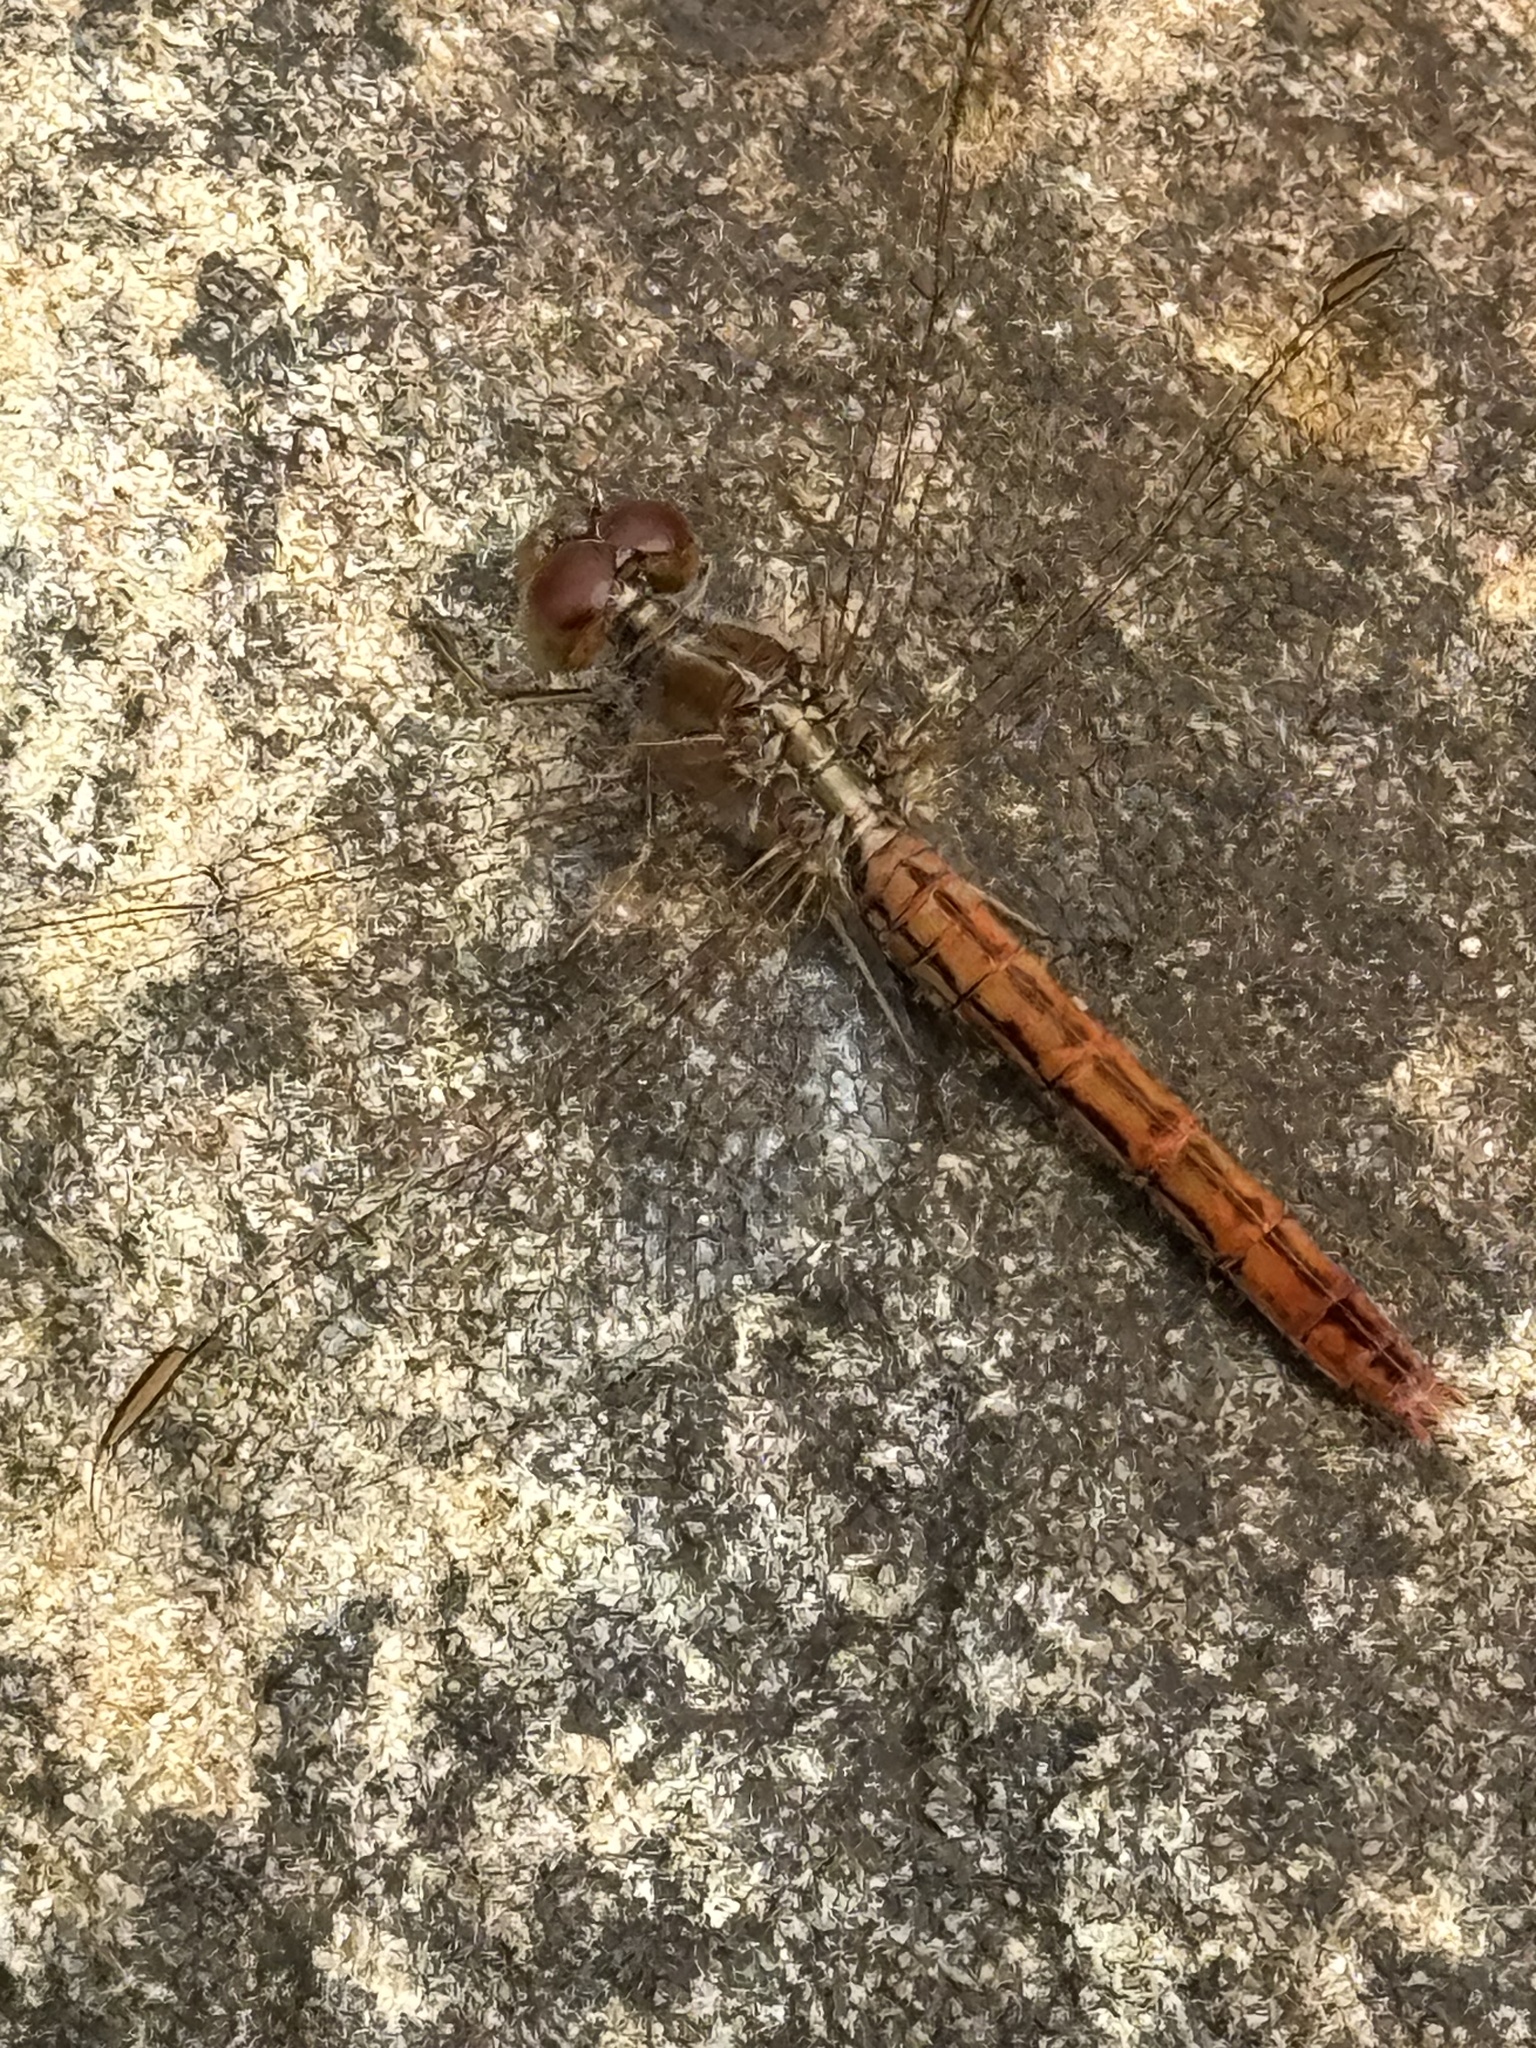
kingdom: Animalia
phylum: Arthropoda
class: Insecta
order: Odonata
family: Libellulidae
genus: Diplacodes
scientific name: Diplacodes haematodes
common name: Scarlet percher
